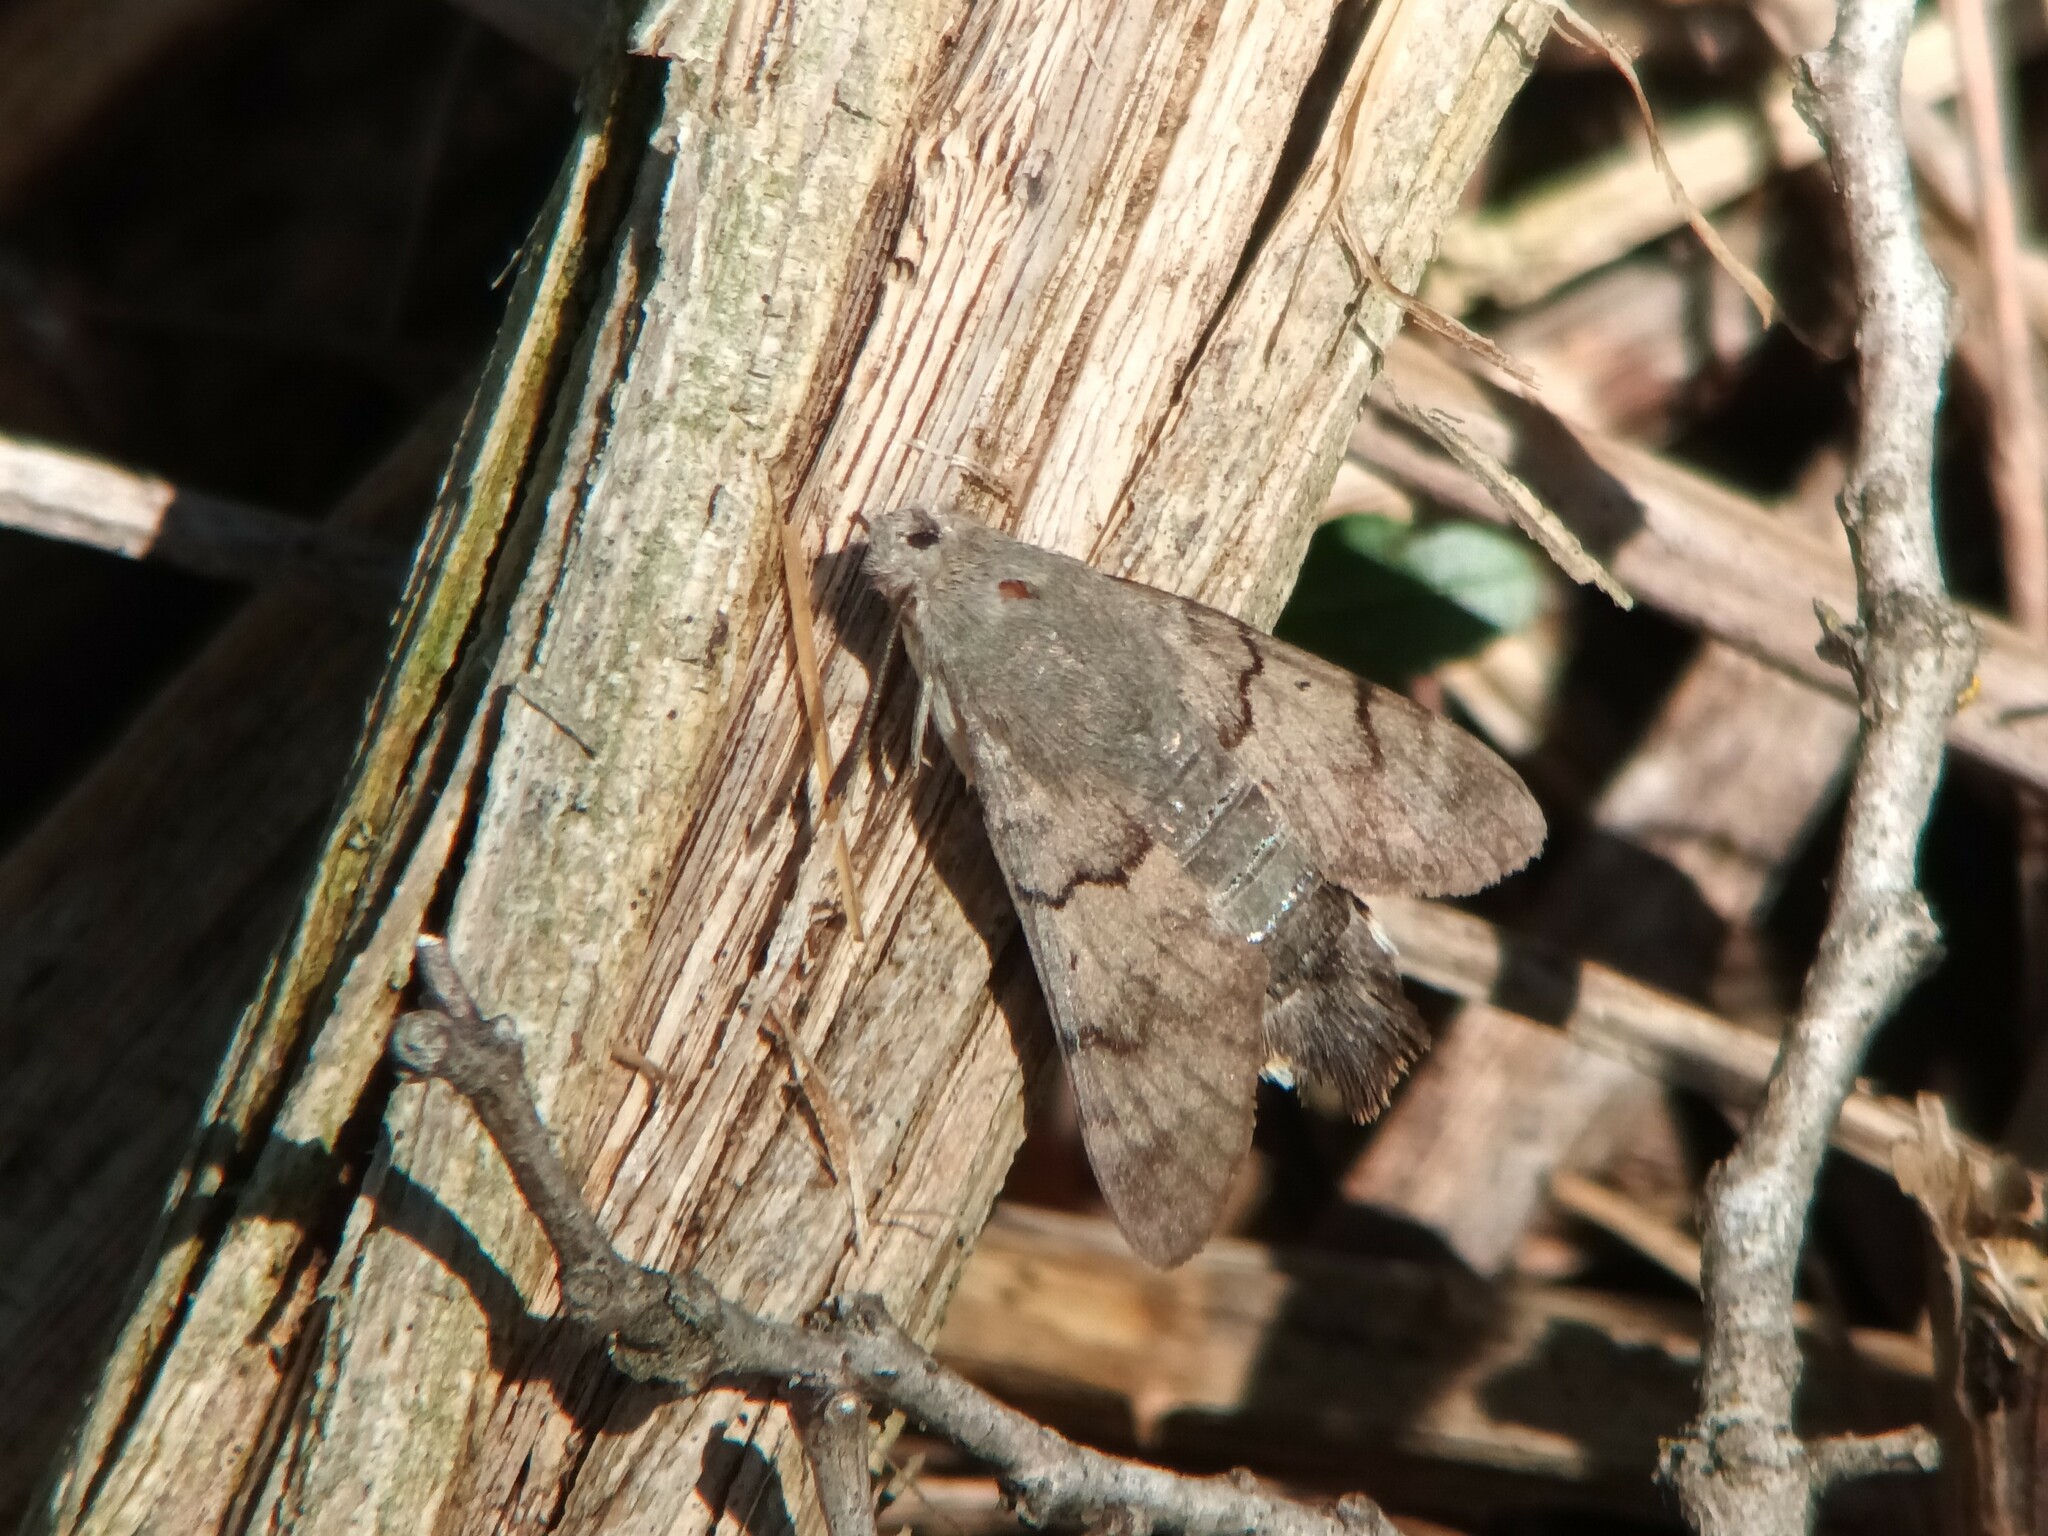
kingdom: Animalia
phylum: Arthropoda
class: Insecta
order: Lepidoptera
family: Sphingidae
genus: Macroglossum
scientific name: Macroglossum stellatarum
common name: Humming-bird hawk-moth
